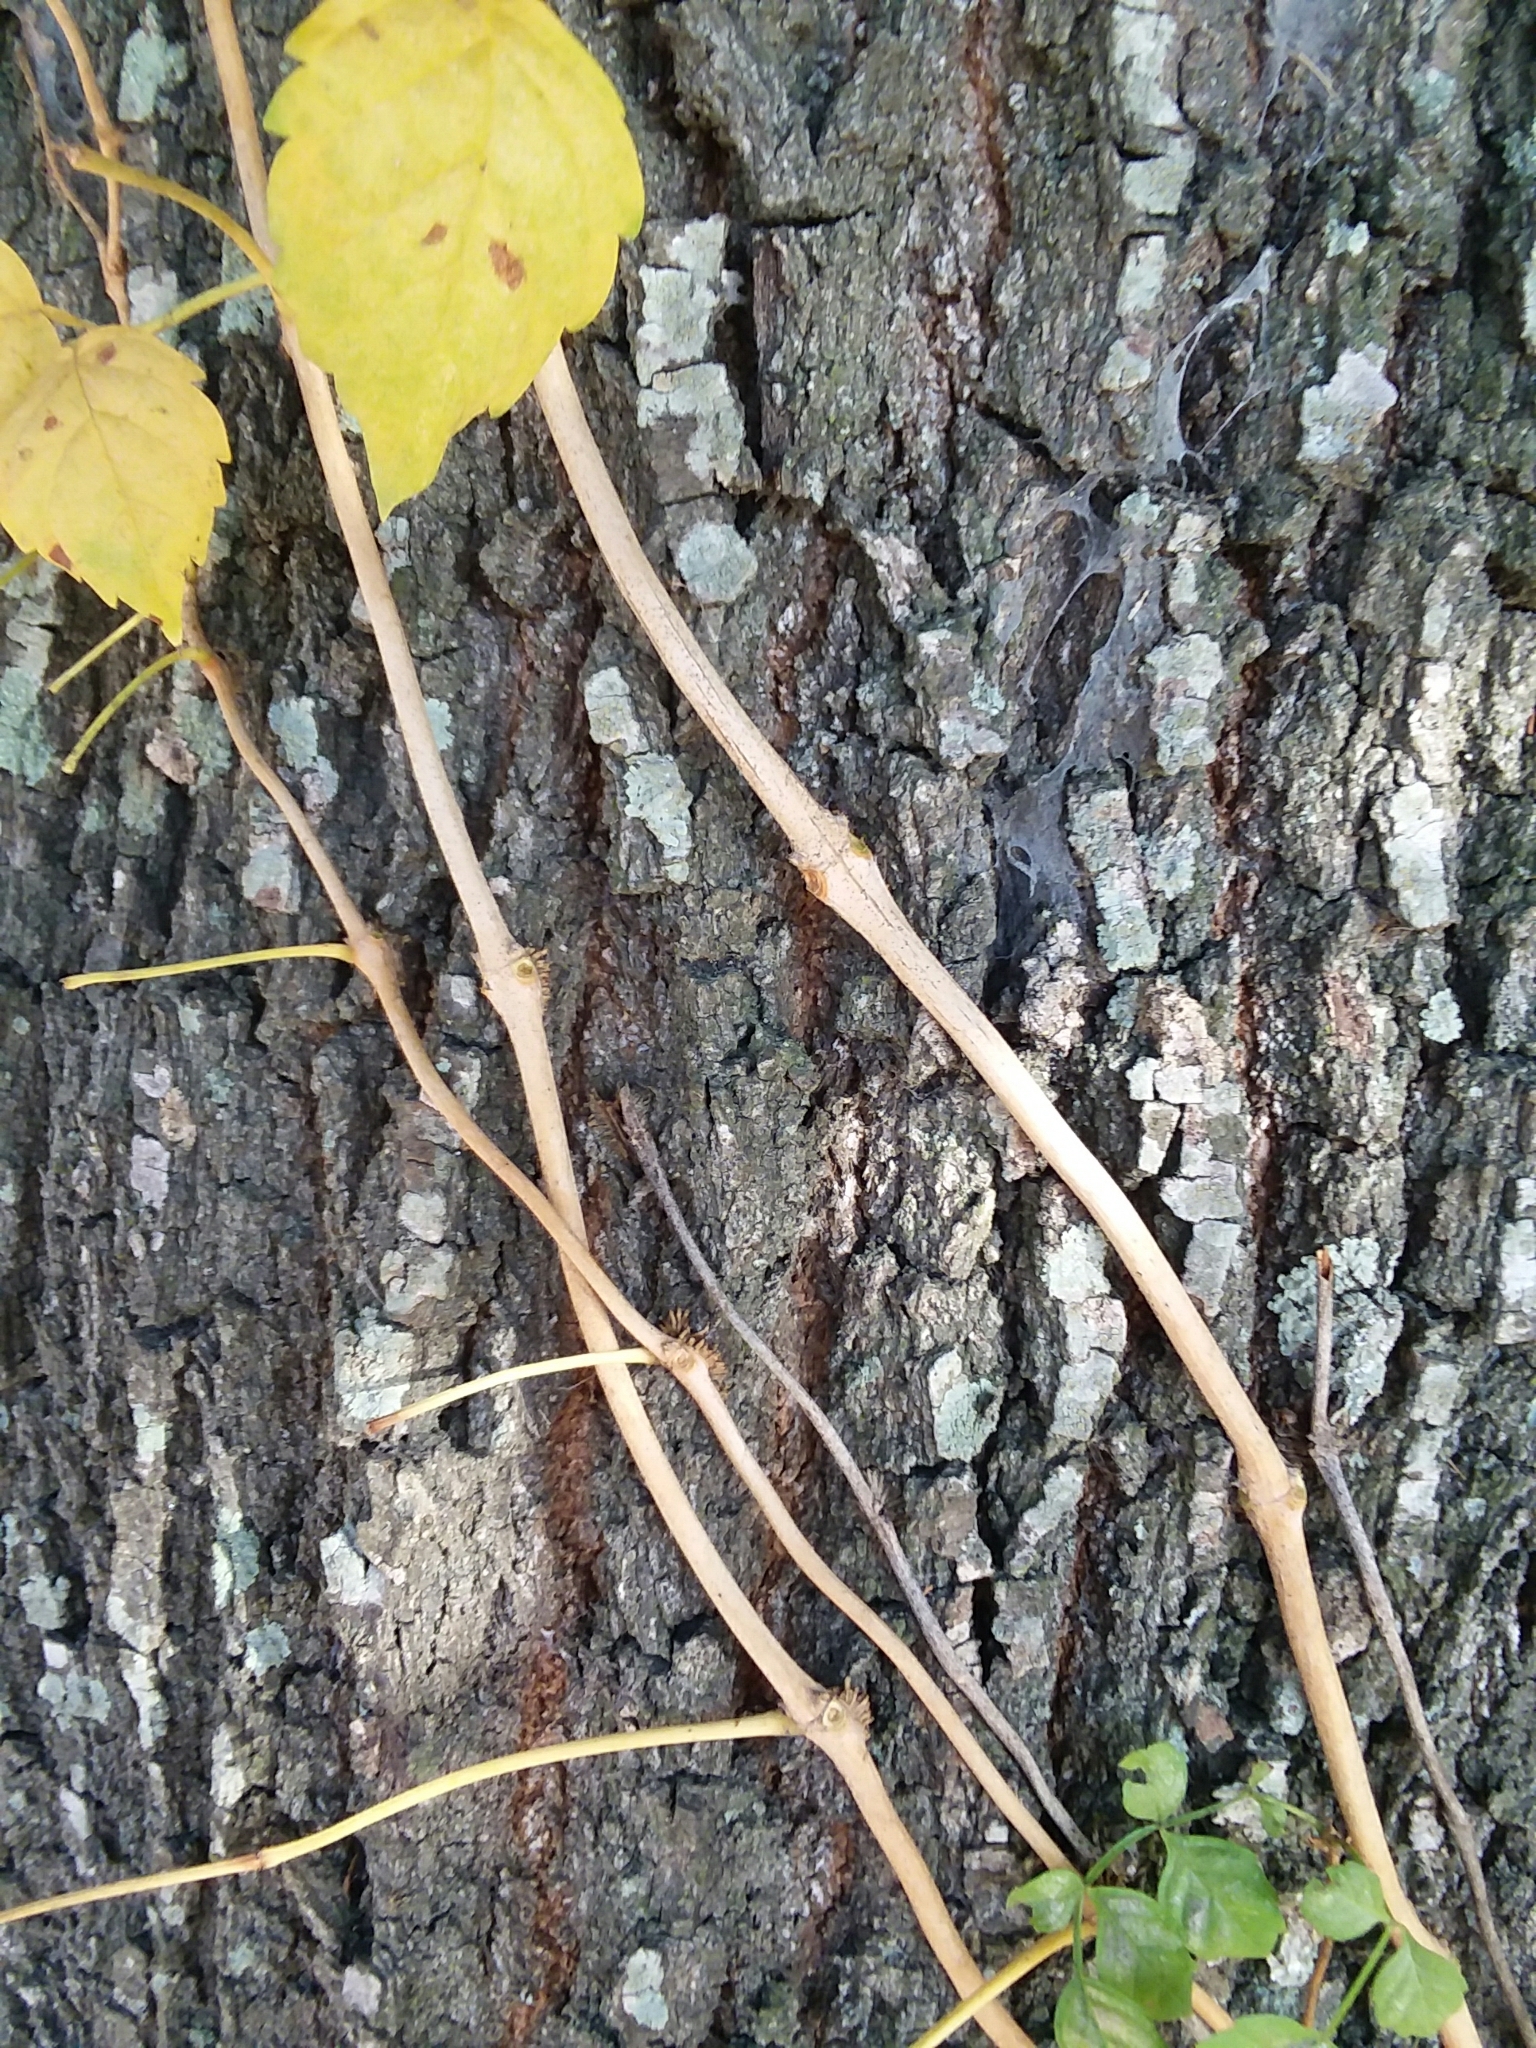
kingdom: Plantae
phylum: Tracheophyta
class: Magnoliopsida
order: Lamiales
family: Bignoniaceae
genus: Campsis
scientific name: Campsis radicans
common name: Trumpet-creeper
